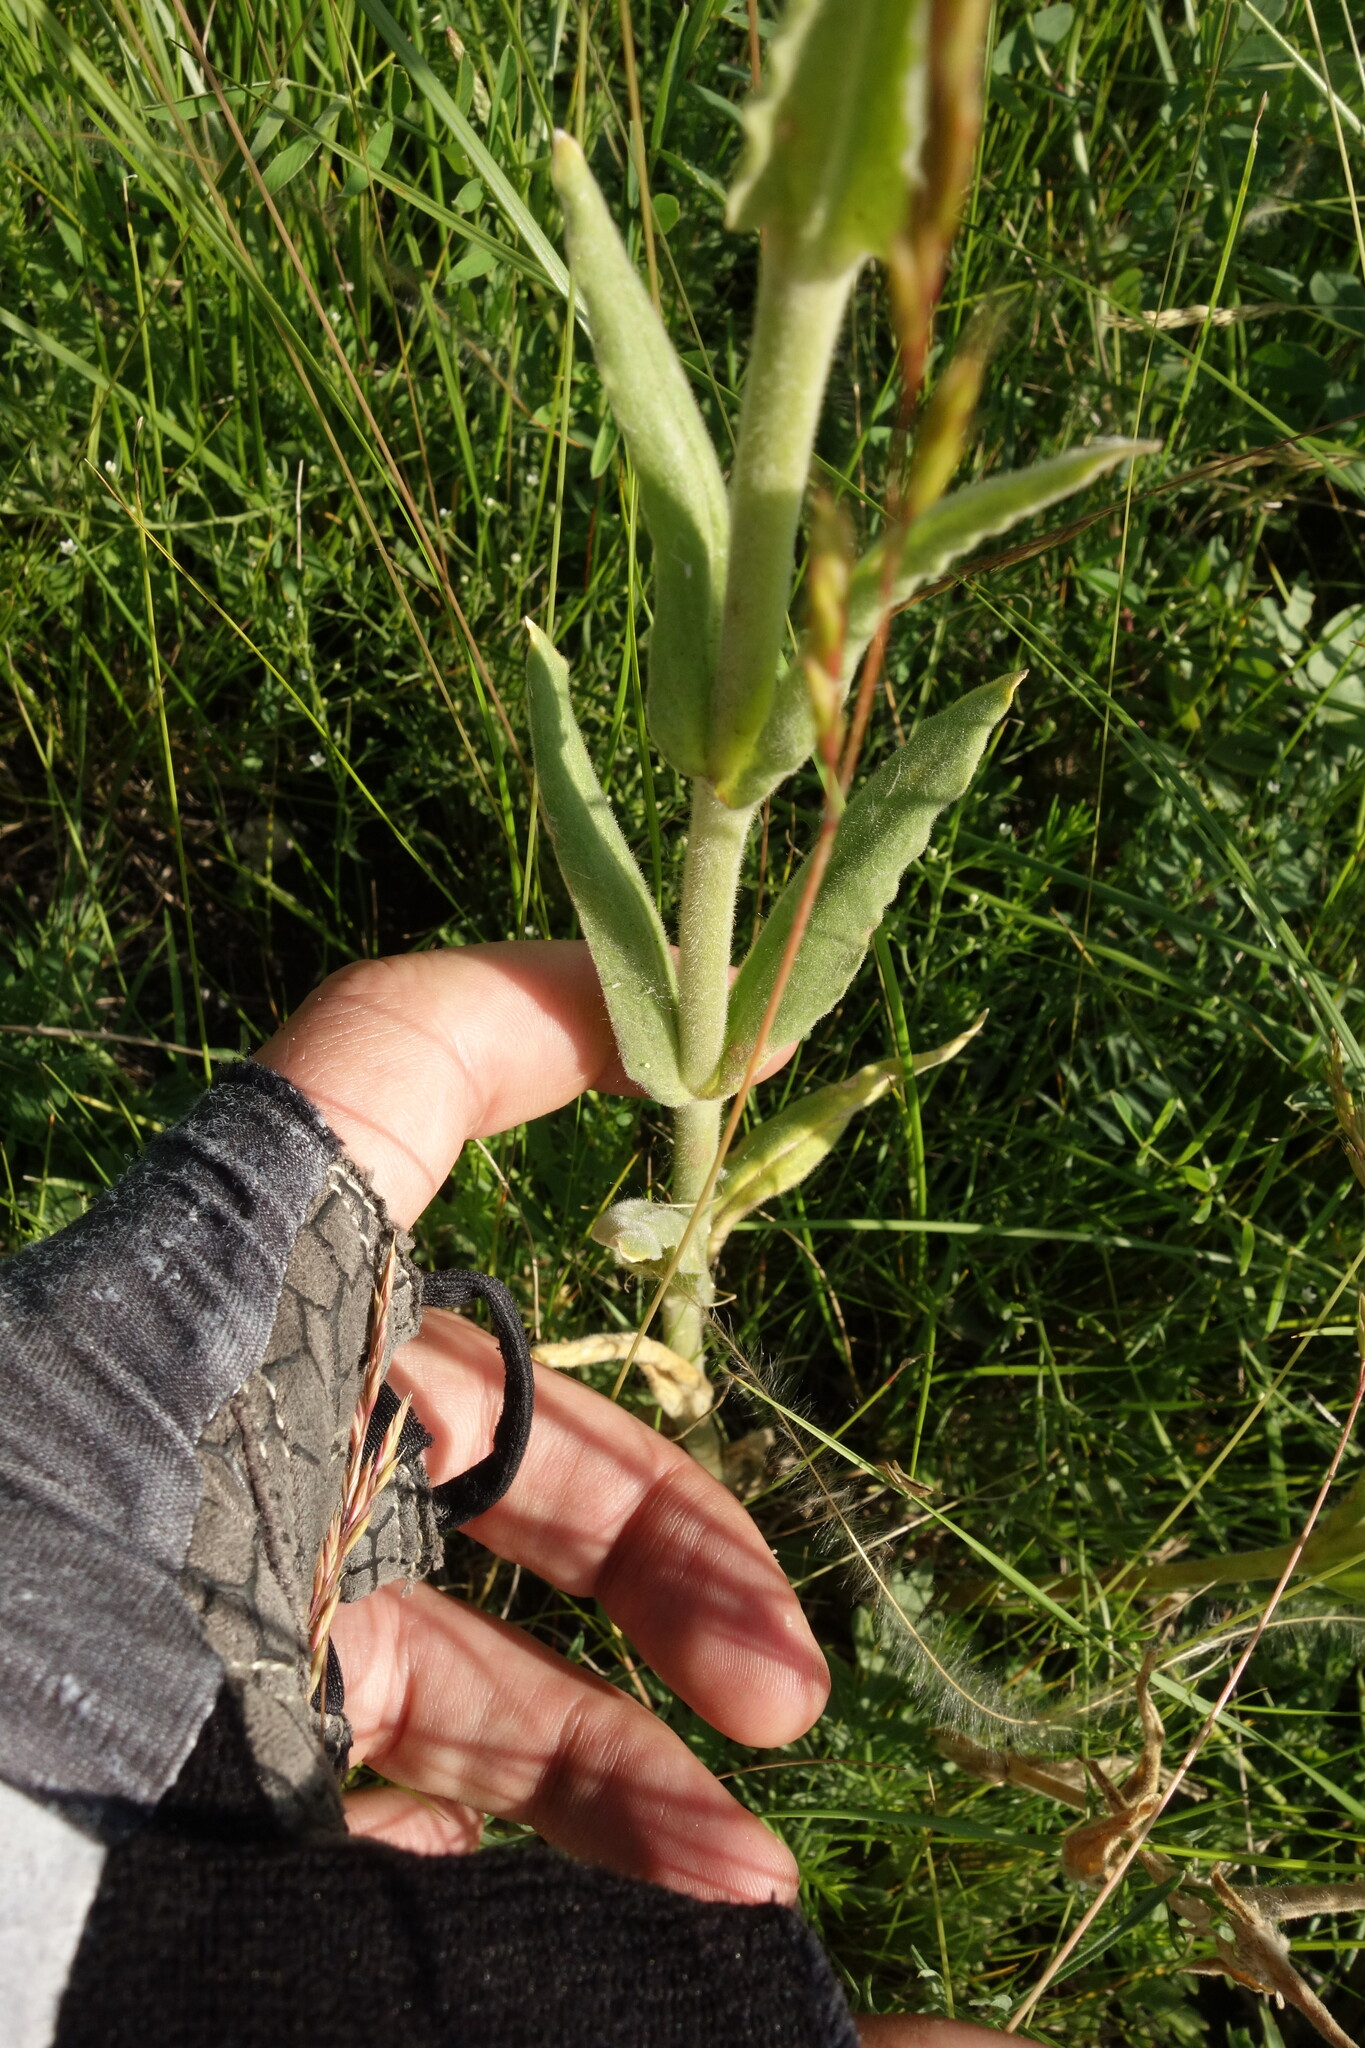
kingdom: Plantae
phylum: Tracheophyta
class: Magnoliopsida
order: Caryophyllales
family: Caryophyllaceae
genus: Silene
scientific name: Silene viscosa
